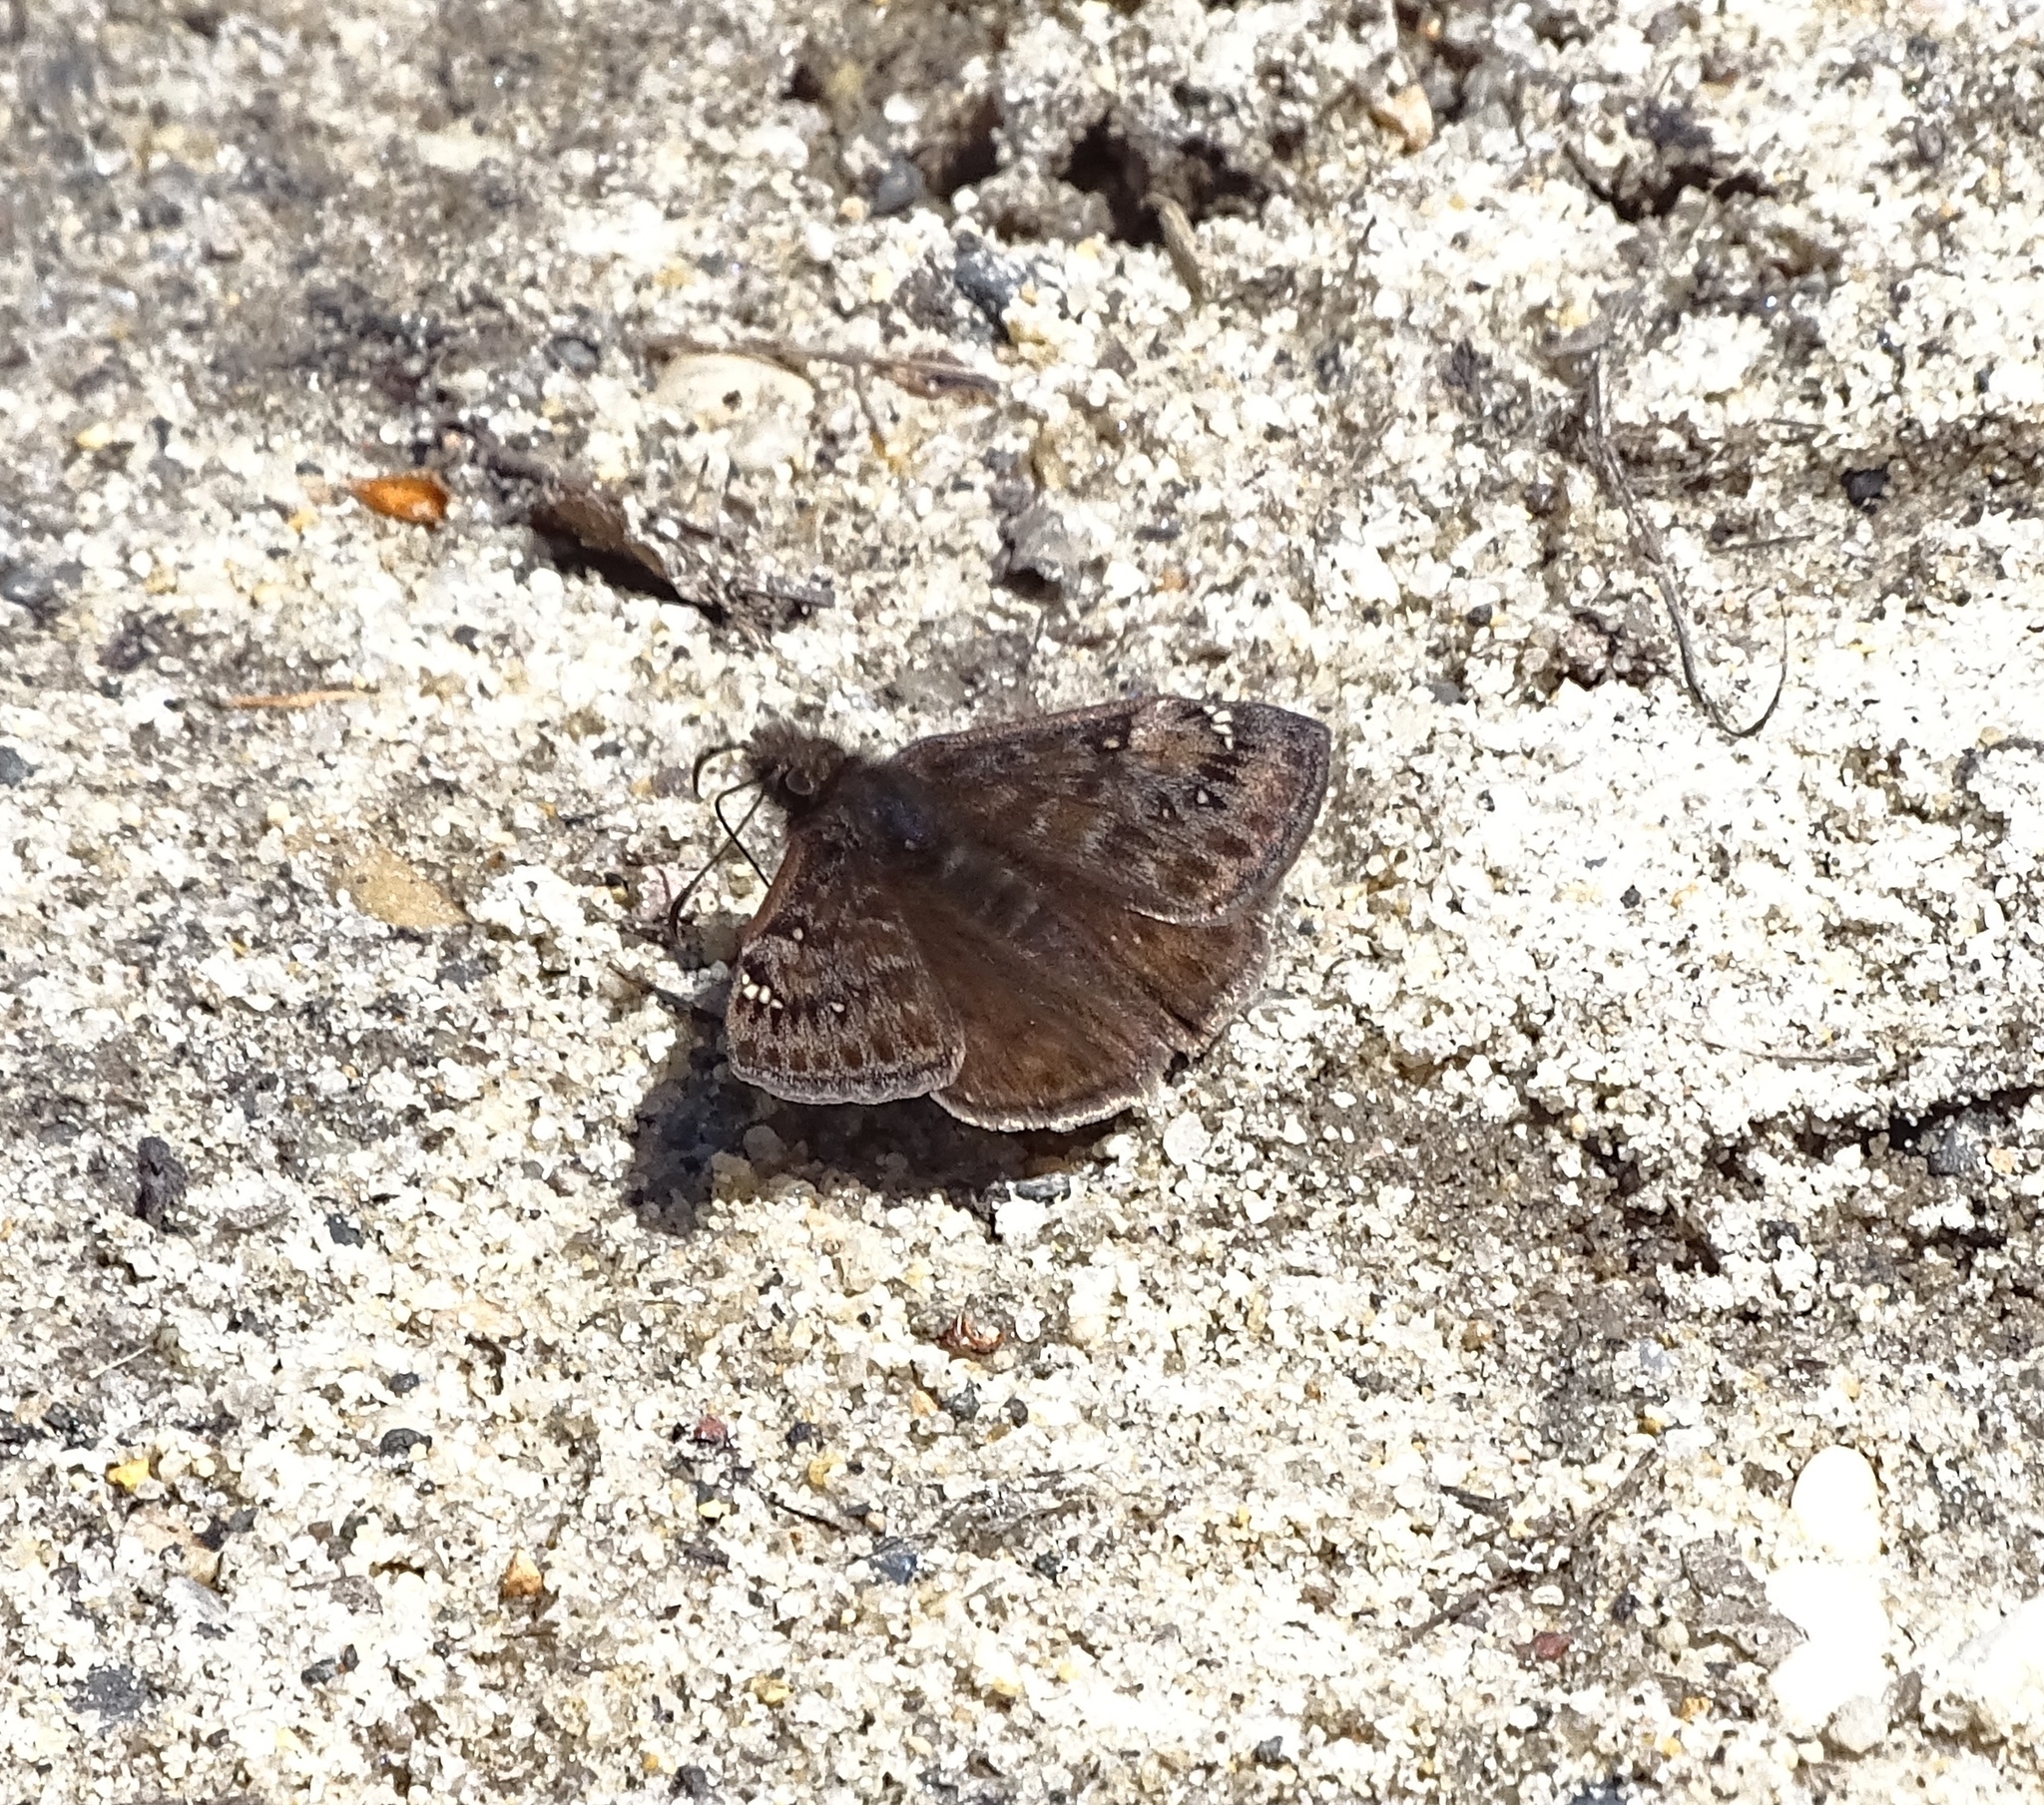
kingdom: Animalia
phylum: Arthropoda
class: Insecta
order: Lepidoptera
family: Hesperiidae
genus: Erynnis
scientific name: Erynnis juvenalis
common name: Juvenal's duskywing
